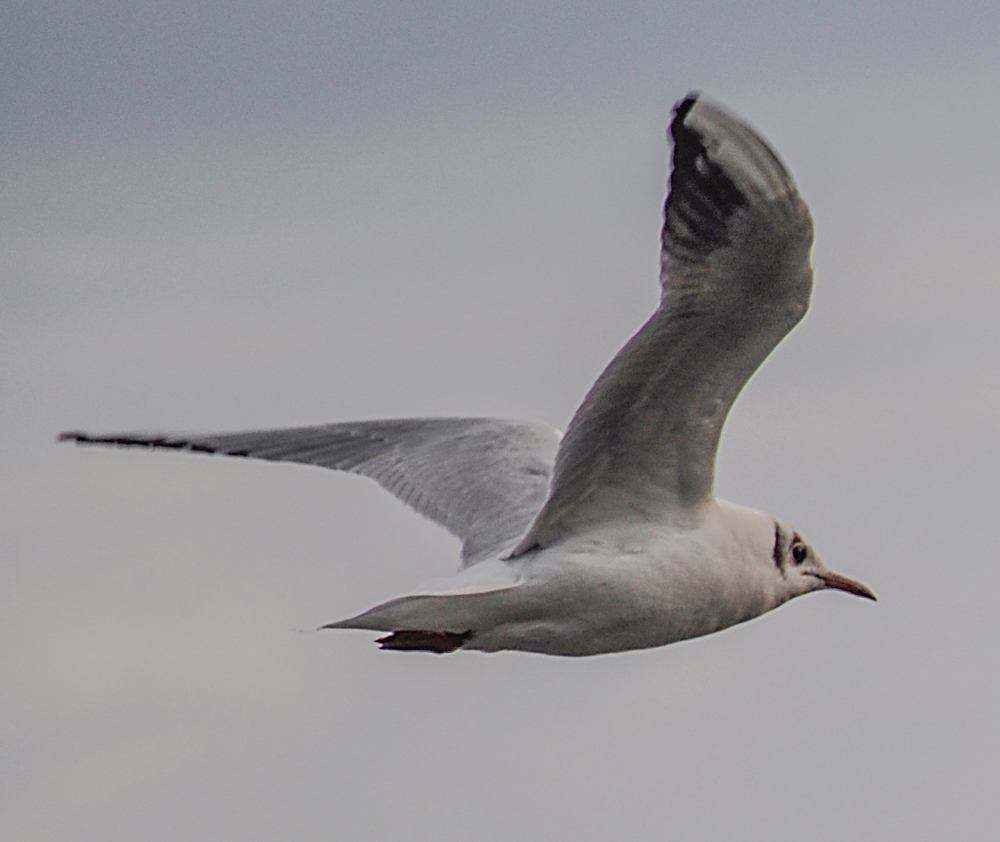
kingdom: Animalia
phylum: Chordata
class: Aves
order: Charadriiformes
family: Laridae
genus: Chroicocephalus
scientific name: Chroicocephalus ridibundus
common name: Black-headed gull
